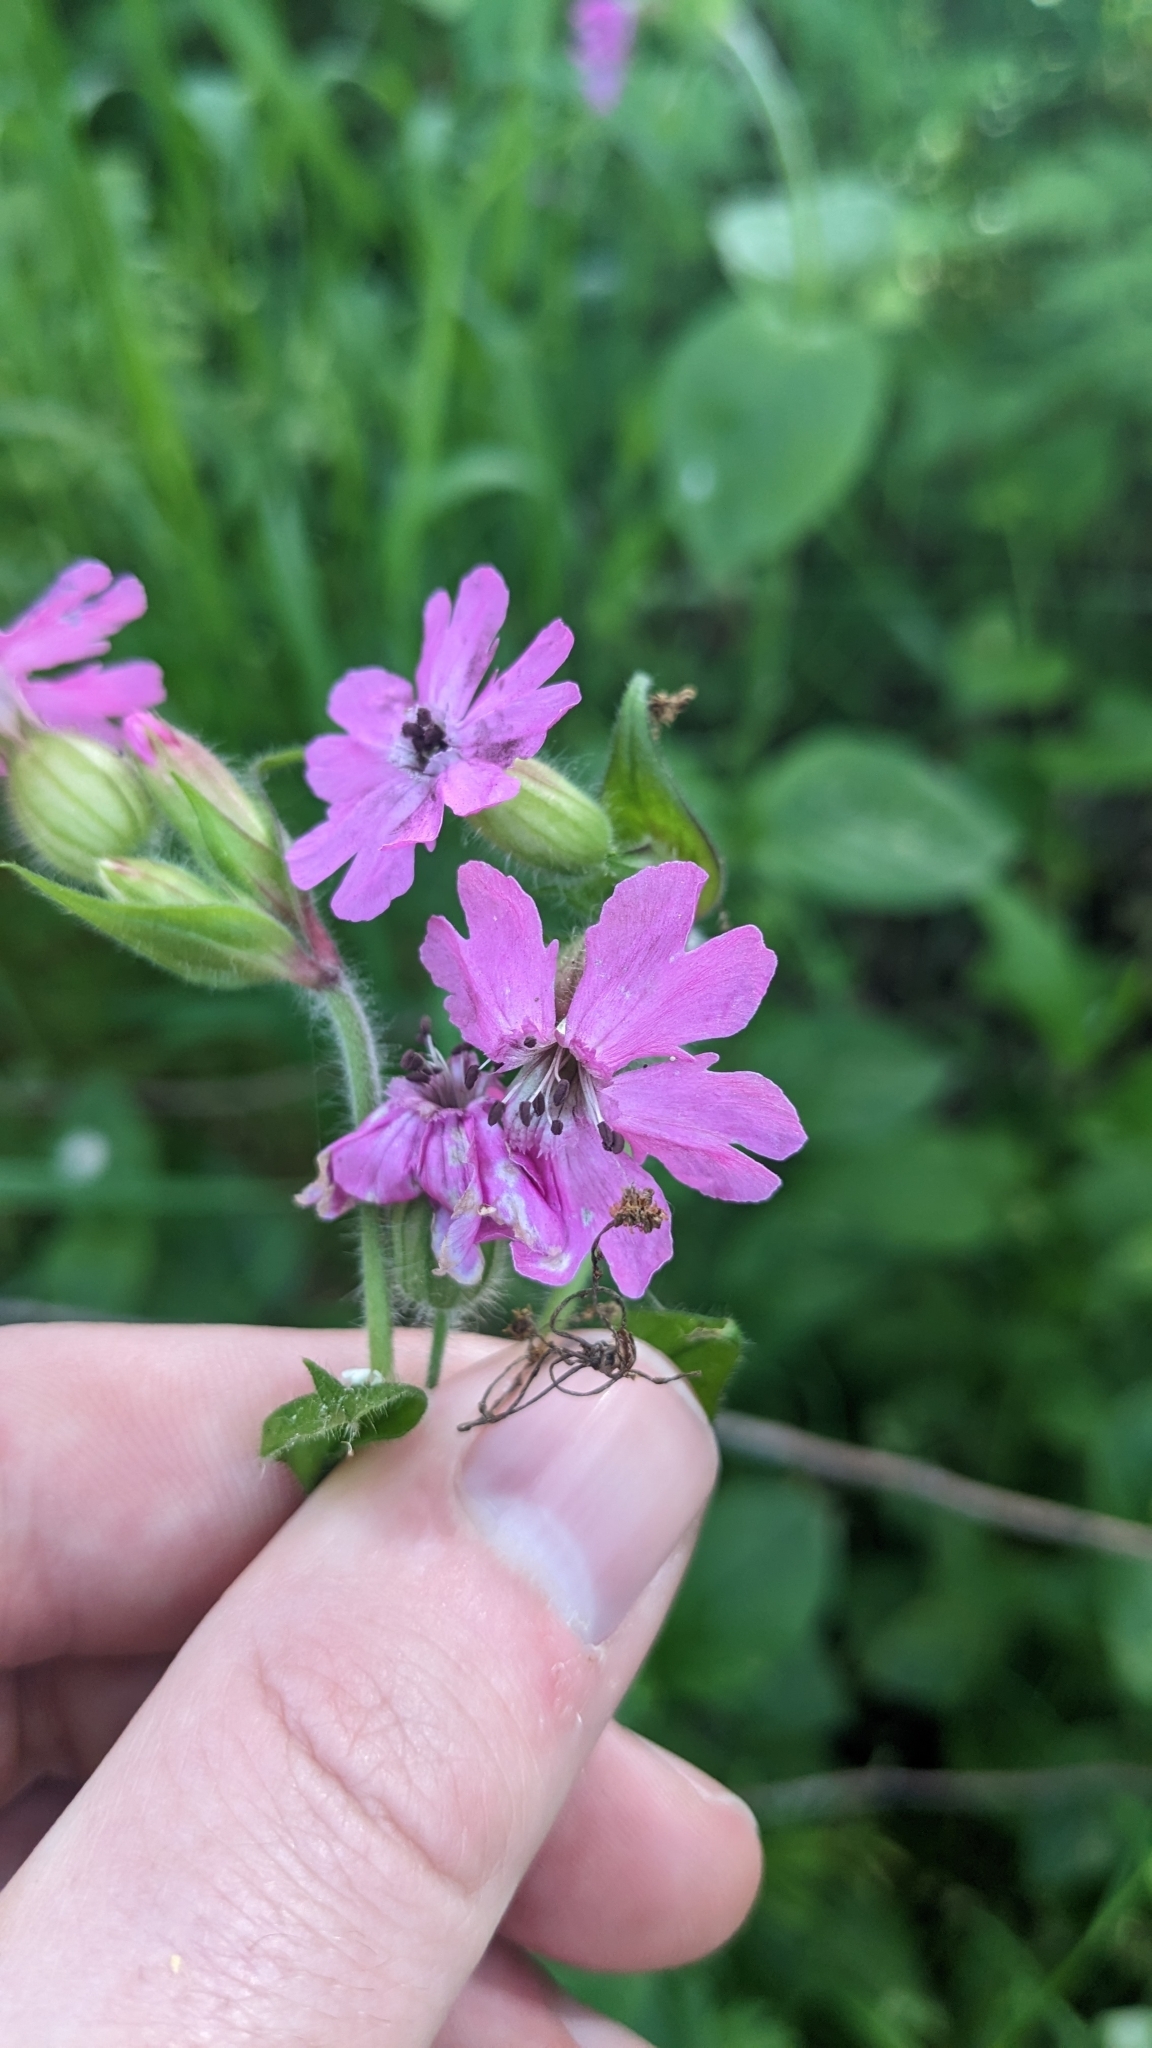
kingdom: Fungi
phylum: Basidiomycota
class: Microbotryomycetes
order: Microbotryales
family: Microbotryaceae
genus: Microbotryum
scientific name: Microbotryum silenes-dioicae
